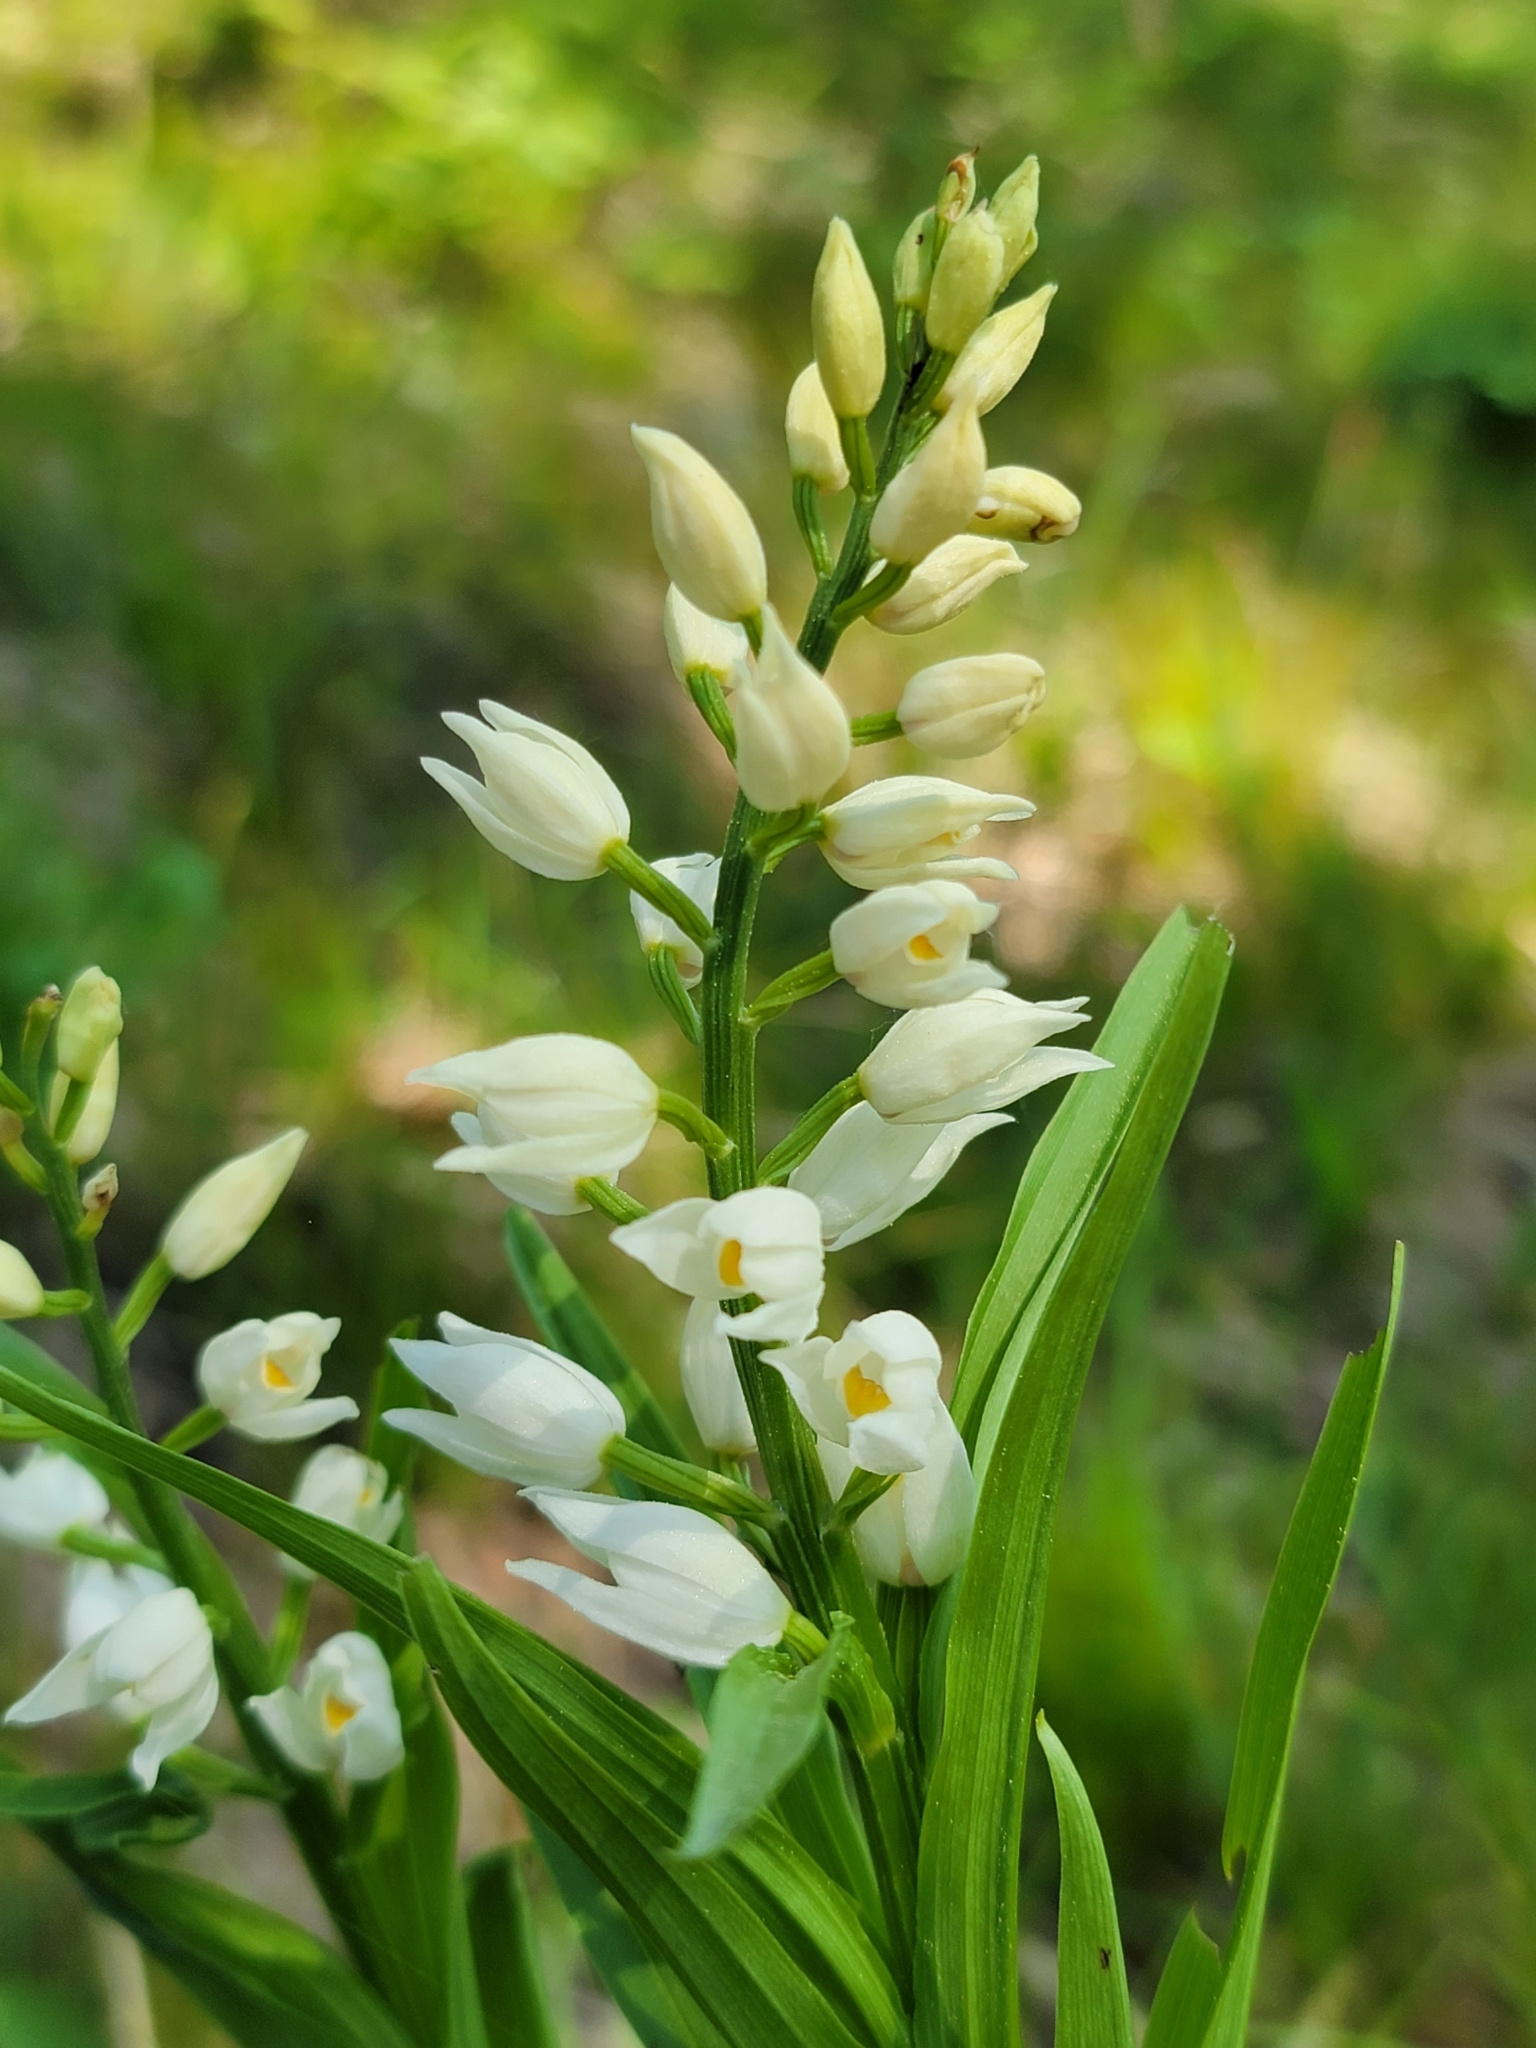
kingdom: Plantae
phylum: Tracheophyta
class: Liliopsida
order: Asparagales
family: Orchidaceae
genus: Cephalanthera
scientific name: Cephalanthera longifolia
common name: Narrow-leaved helleborine
